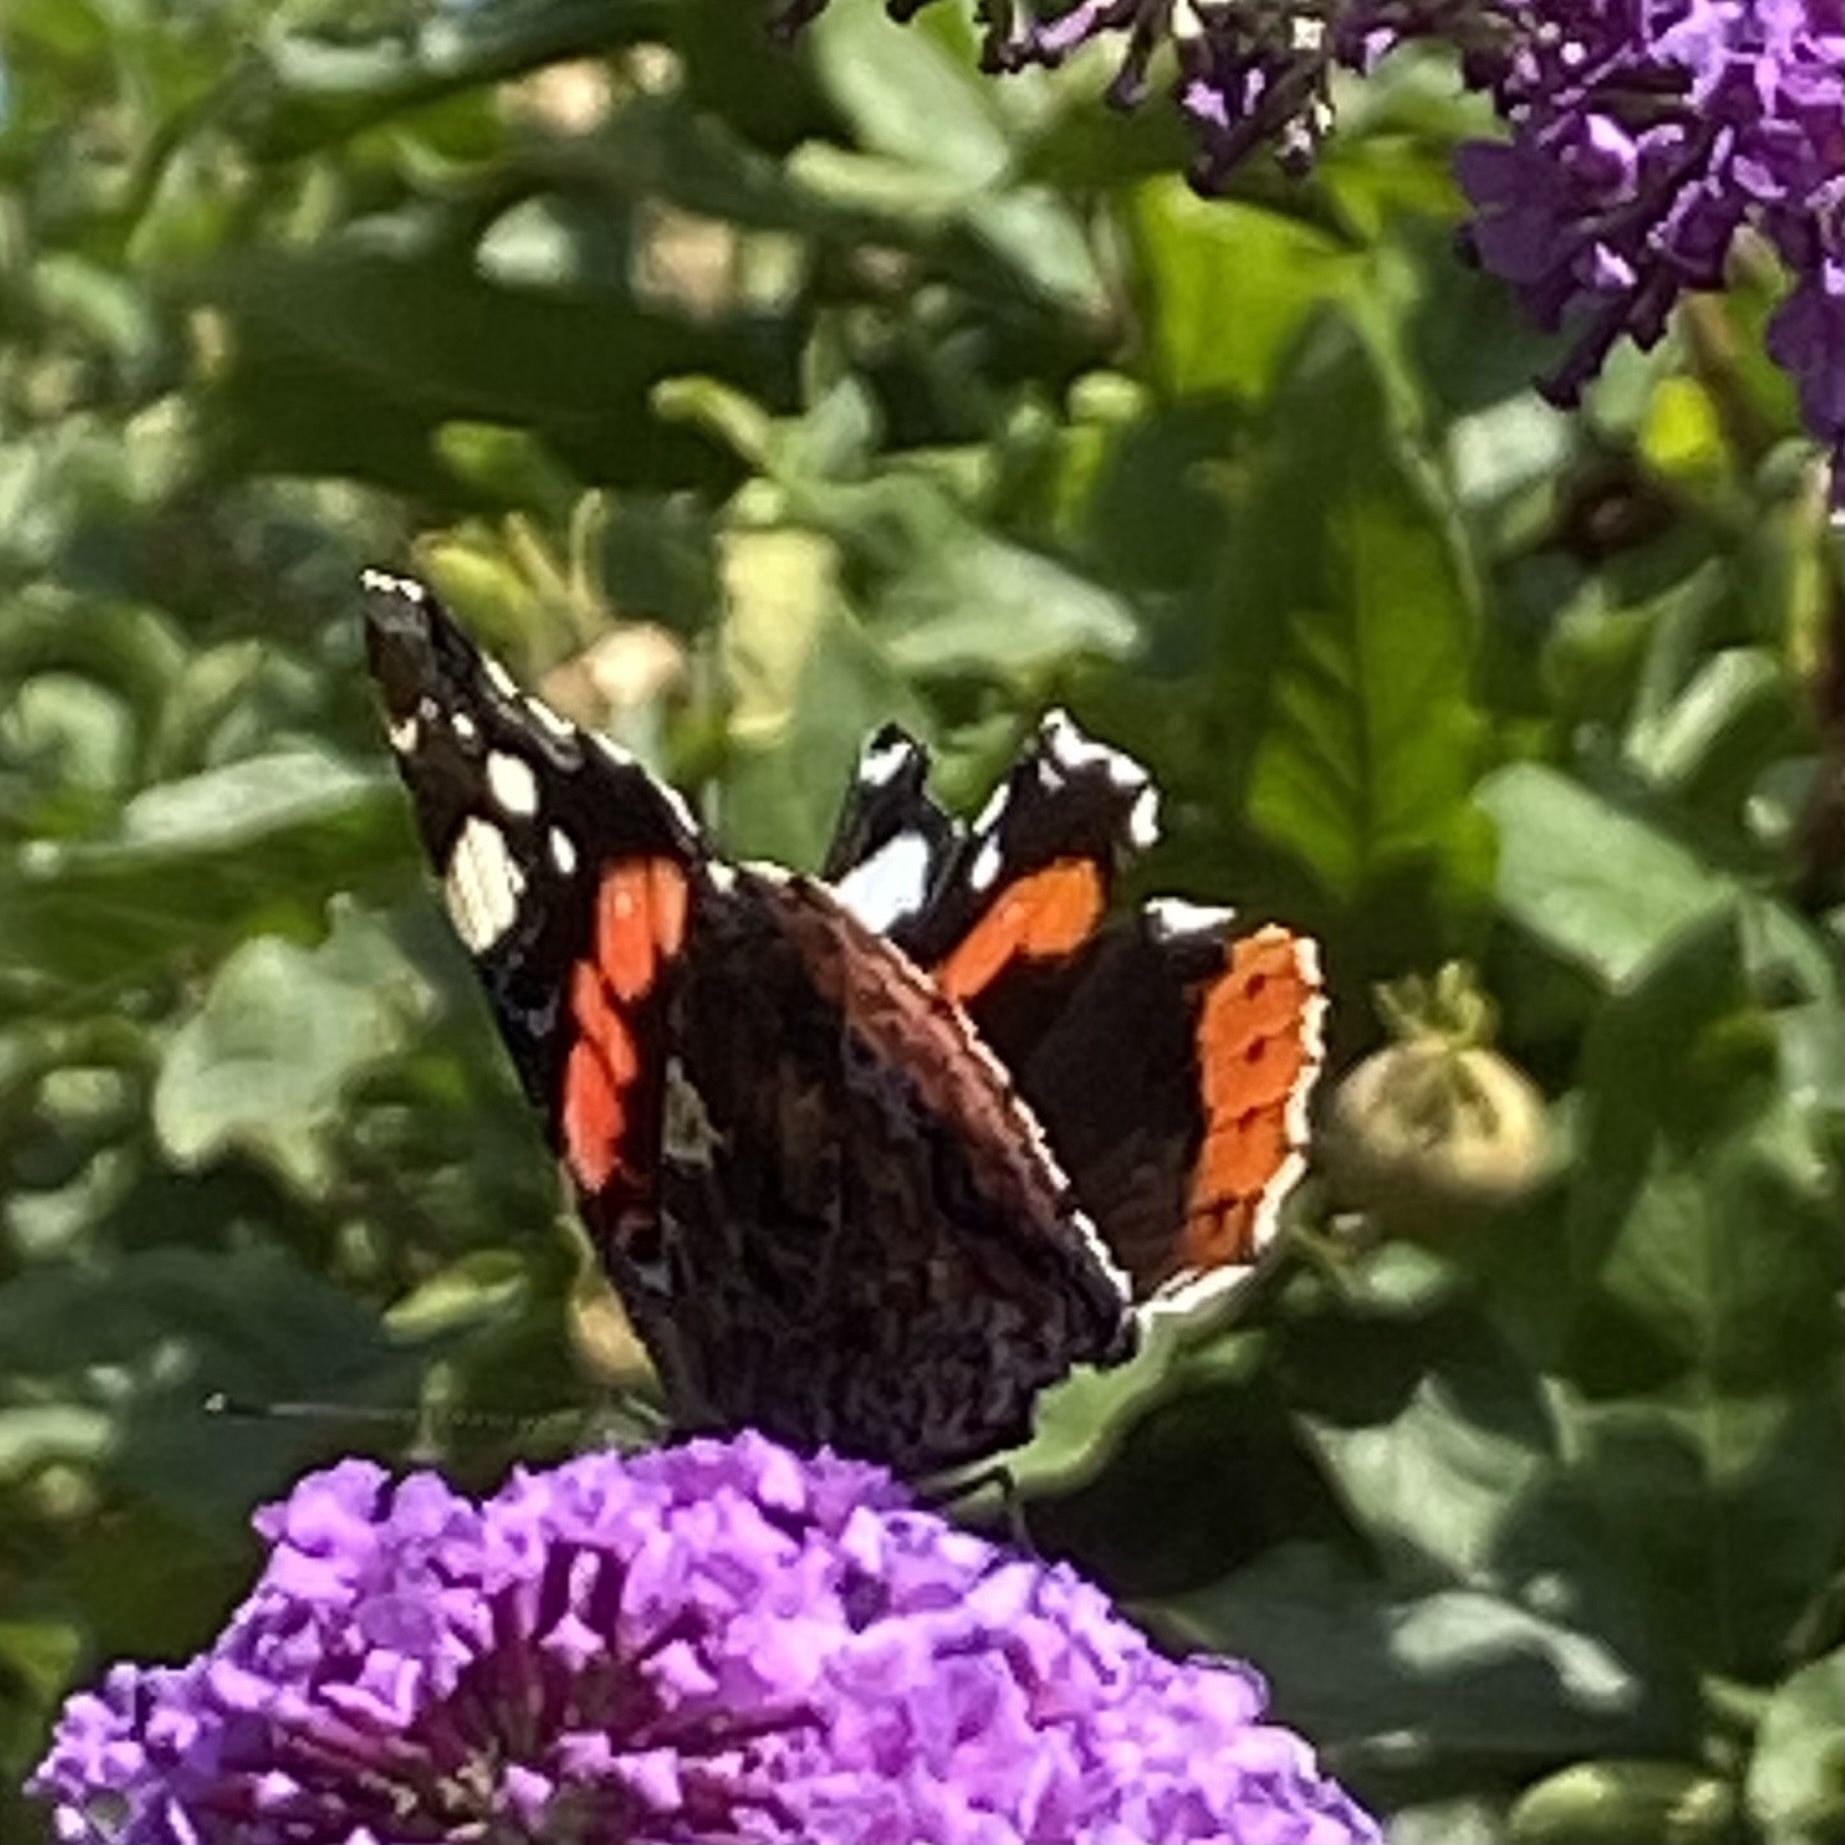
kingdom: Animalia
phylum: Arthropoda
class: Insecta
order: Lepidoptera
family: Nymphalidae
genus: Vanessa
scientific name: Vanessa atalanta
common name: Red admiral
